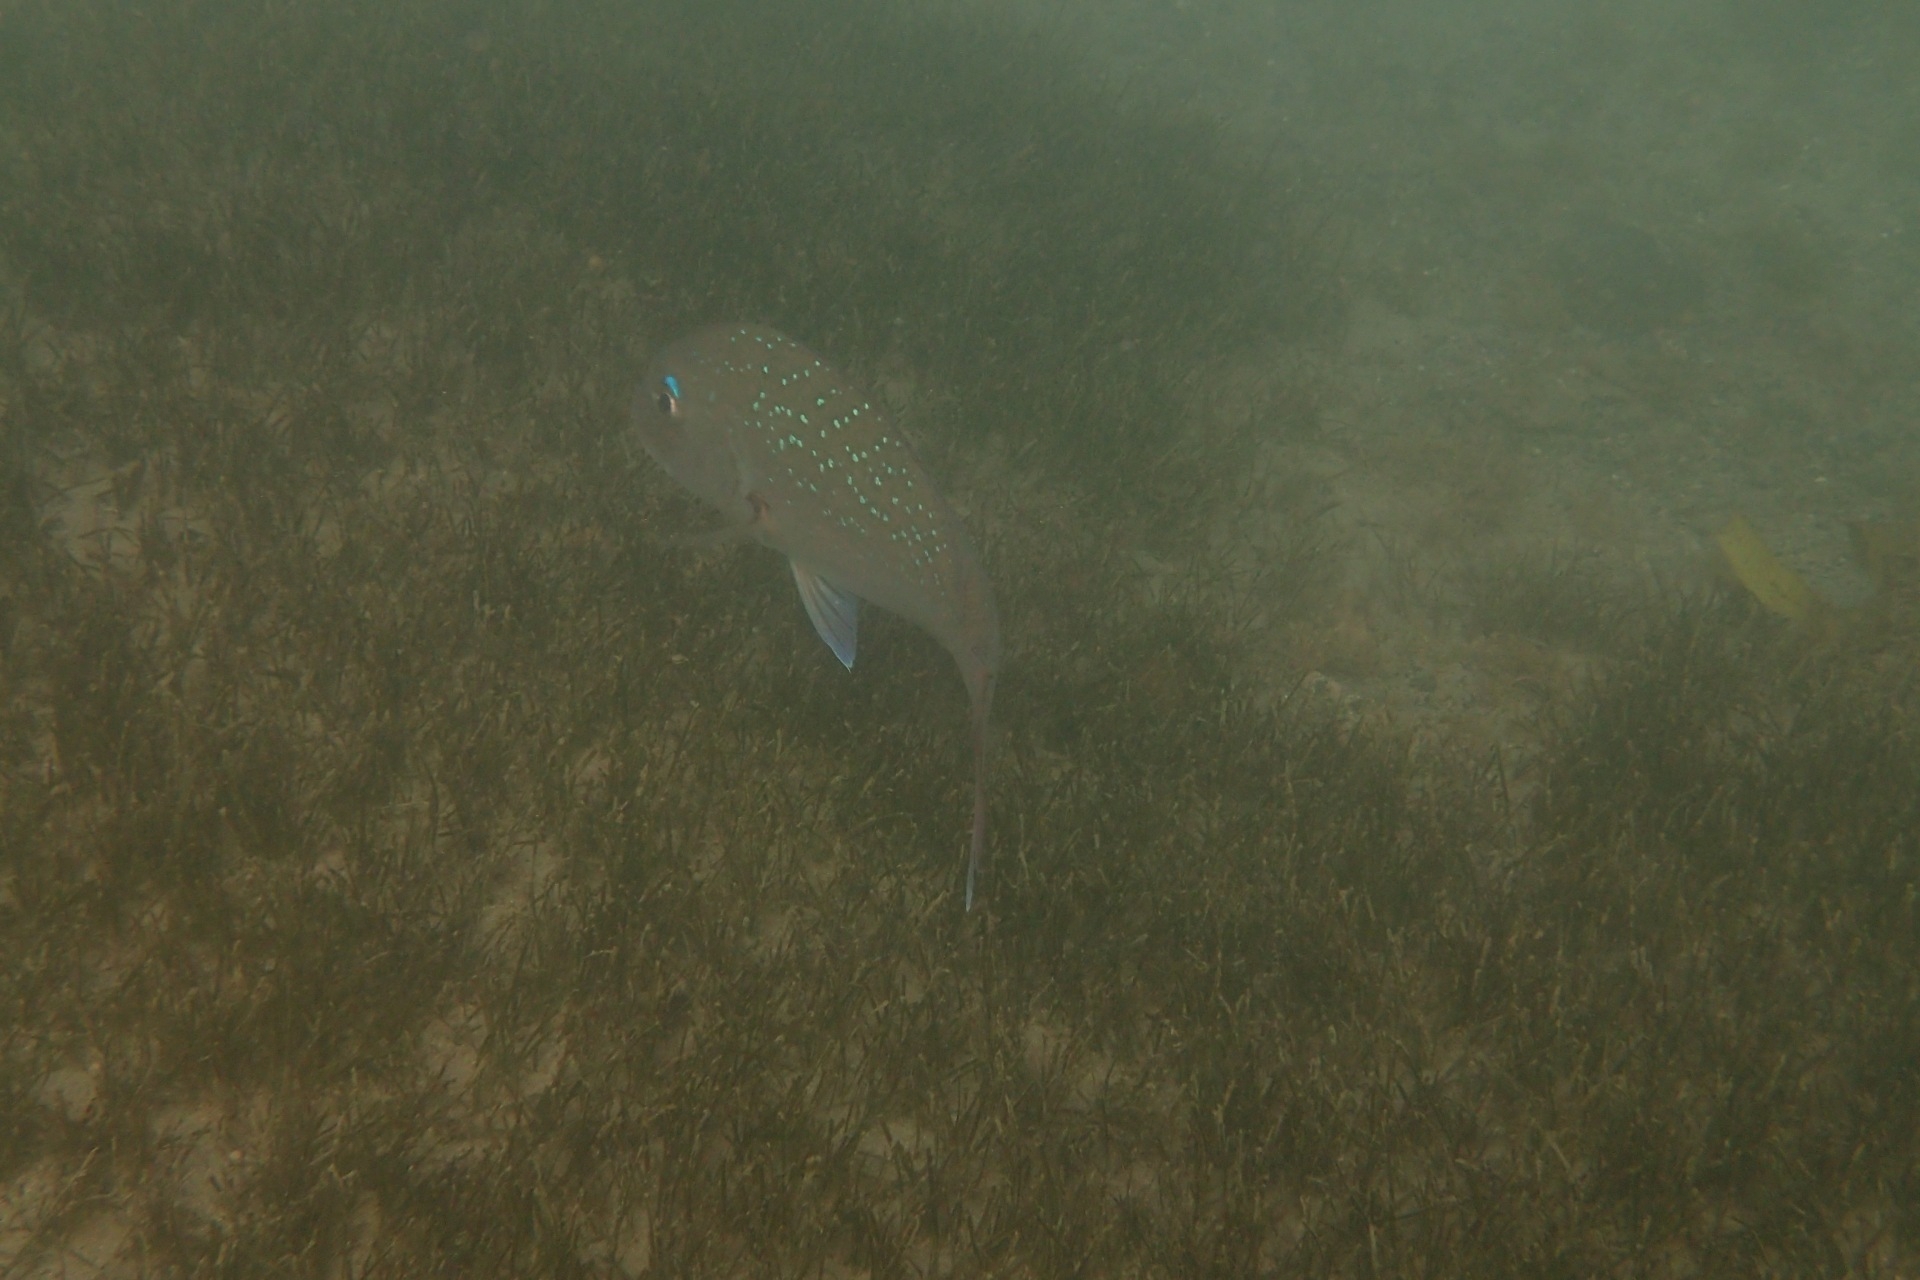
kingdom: Animalia
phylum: Chordata
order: Perciformes
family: Sparidae
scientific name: Sparidae
